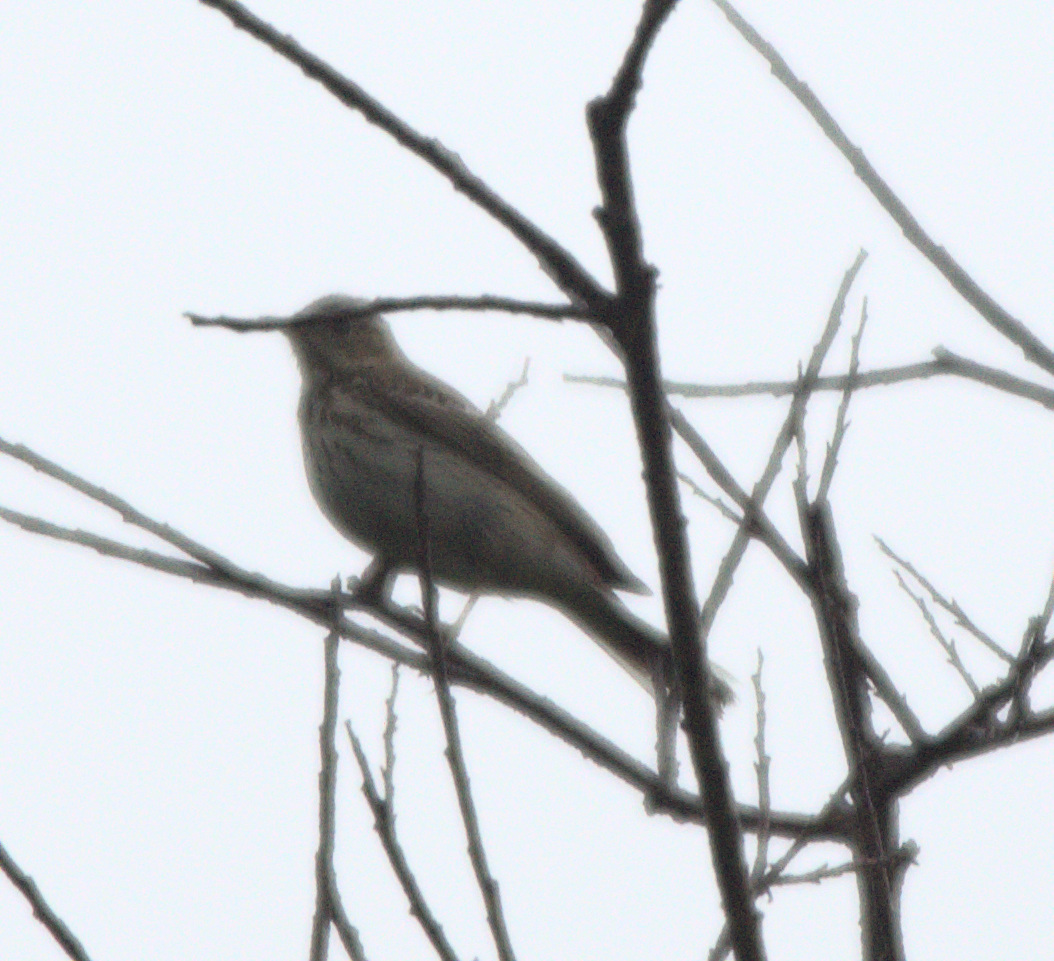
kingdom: Animalia
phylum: Chordata
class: Aves
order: Passeriformes
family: Motacillidae
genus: Anthus
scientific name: Anthus trivialis
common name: Tree pipit
